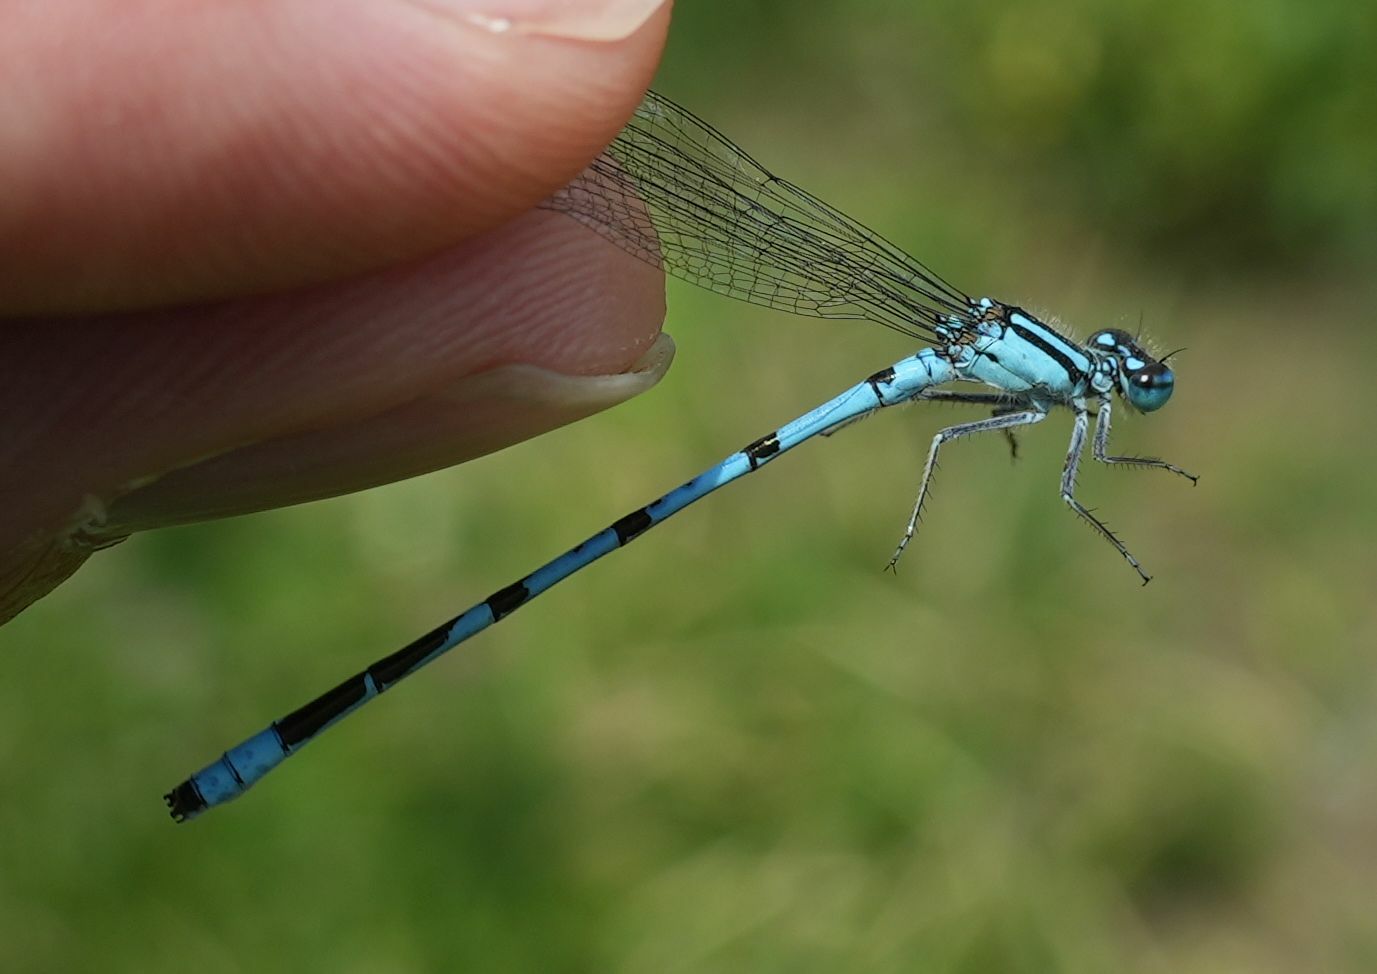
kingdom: Animalia
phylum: Arthropoda
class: Insecta
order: Odonata
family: Coenagrionidae
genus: Enallagma
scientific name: Enallagma ebrium
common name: Marsh bluet
